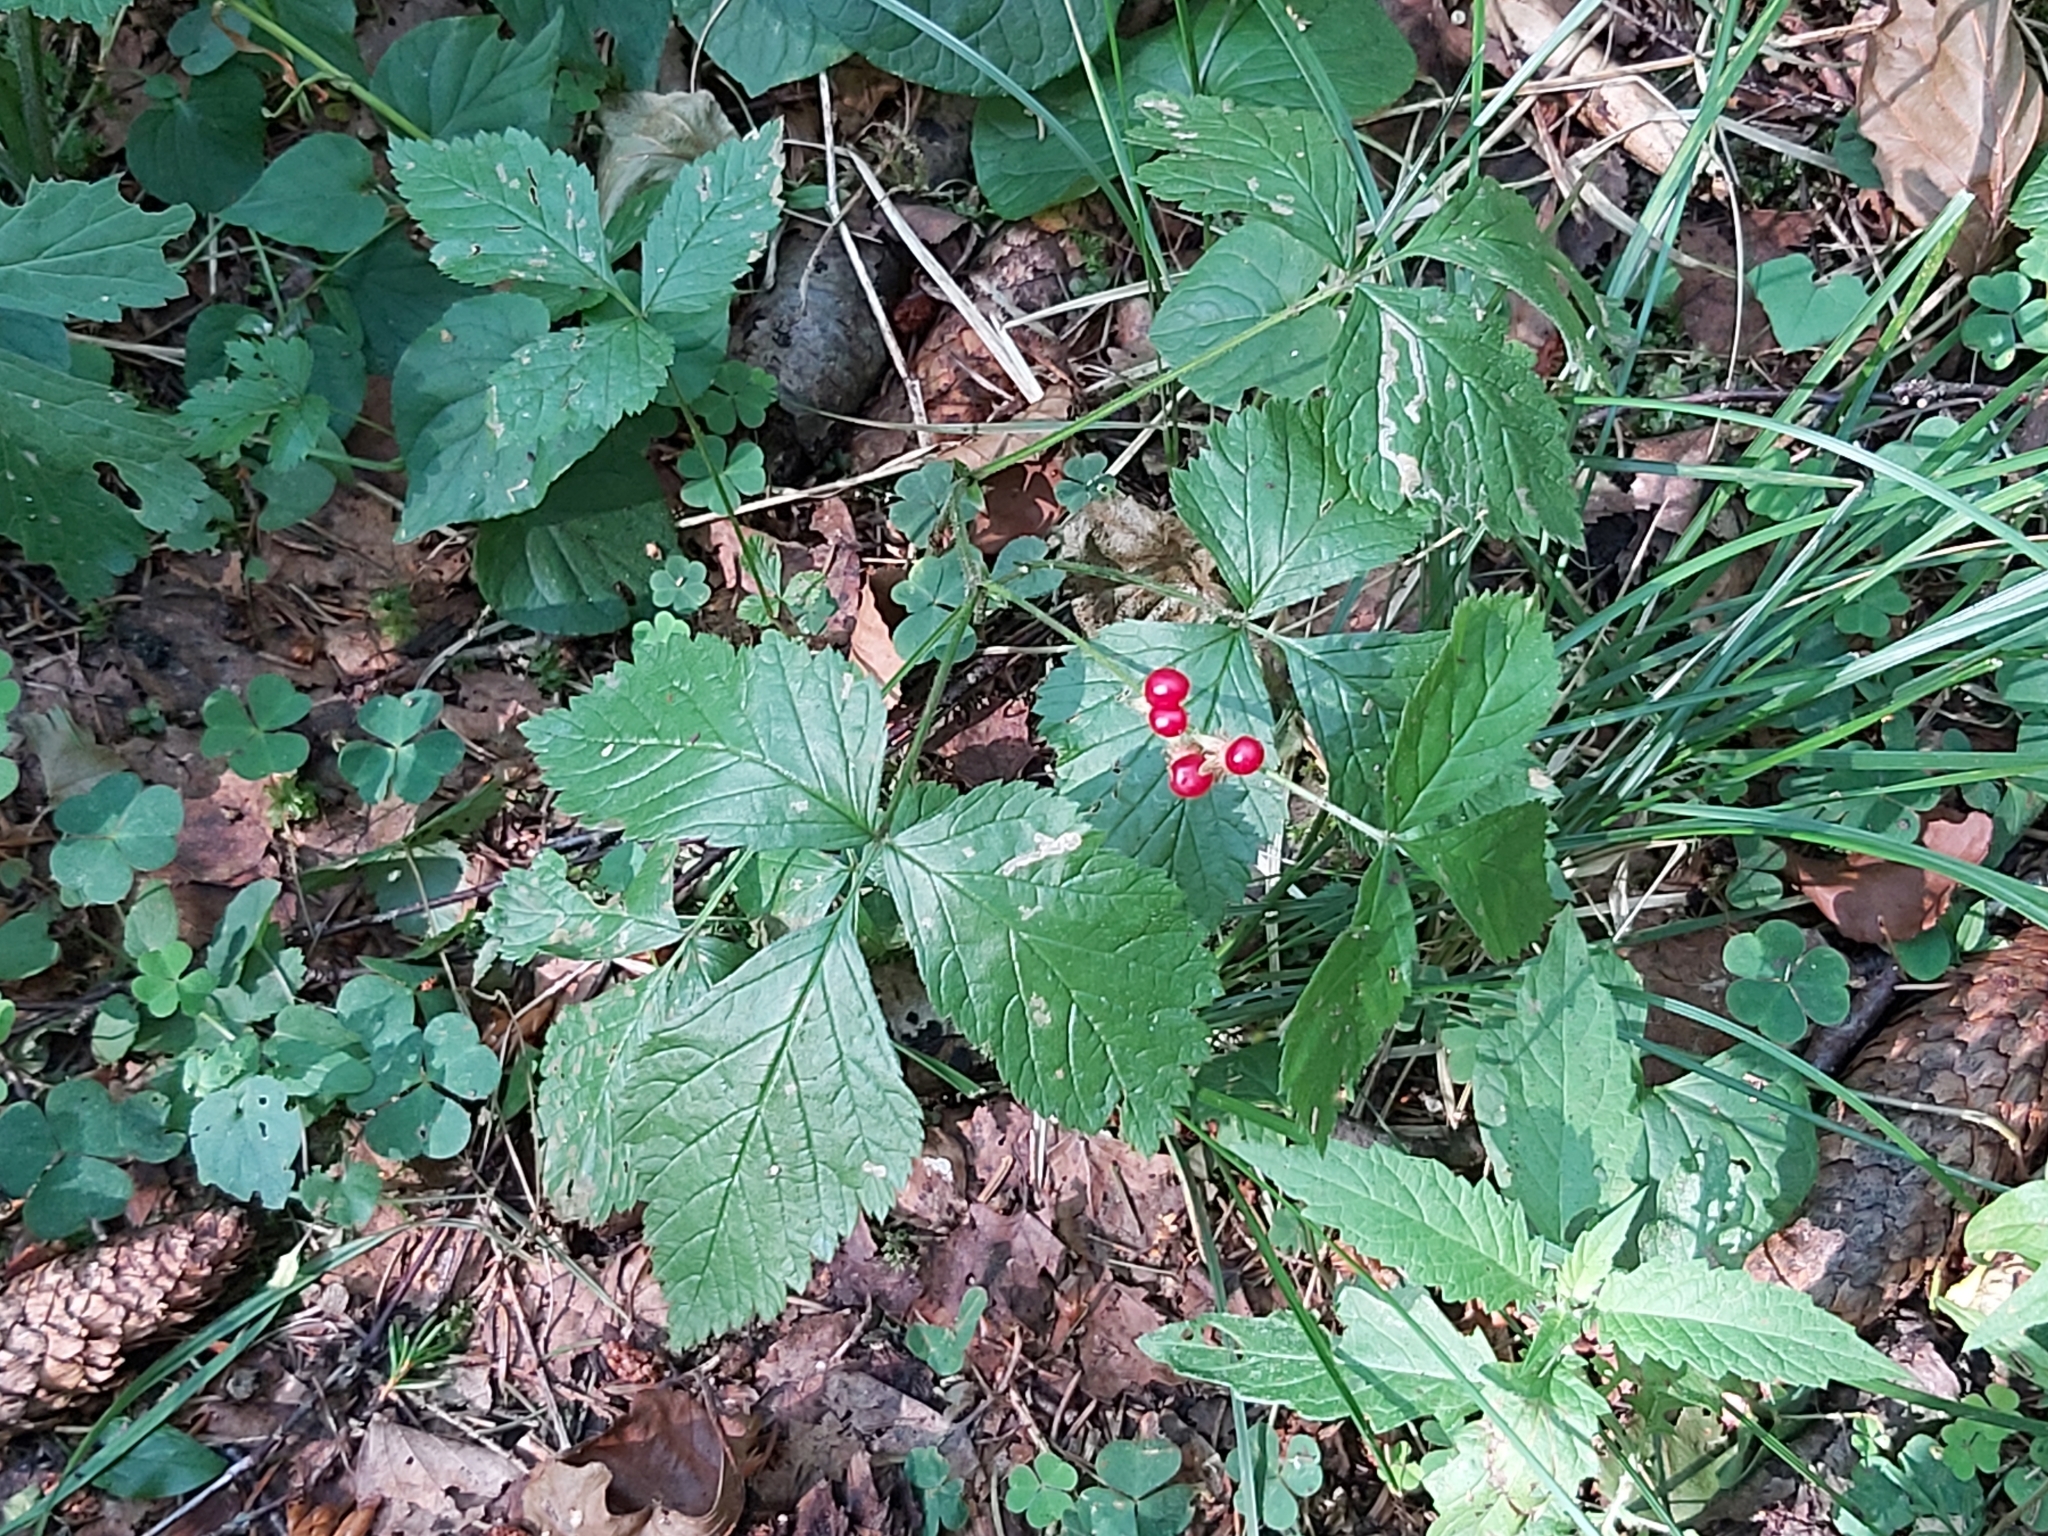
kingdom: Plantae
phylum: Tracheophyta
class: Magnoliopsida
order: Rosales
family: Rosaceae
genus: Rubus
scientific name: Rubus saxatilis
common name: Stone bramble
